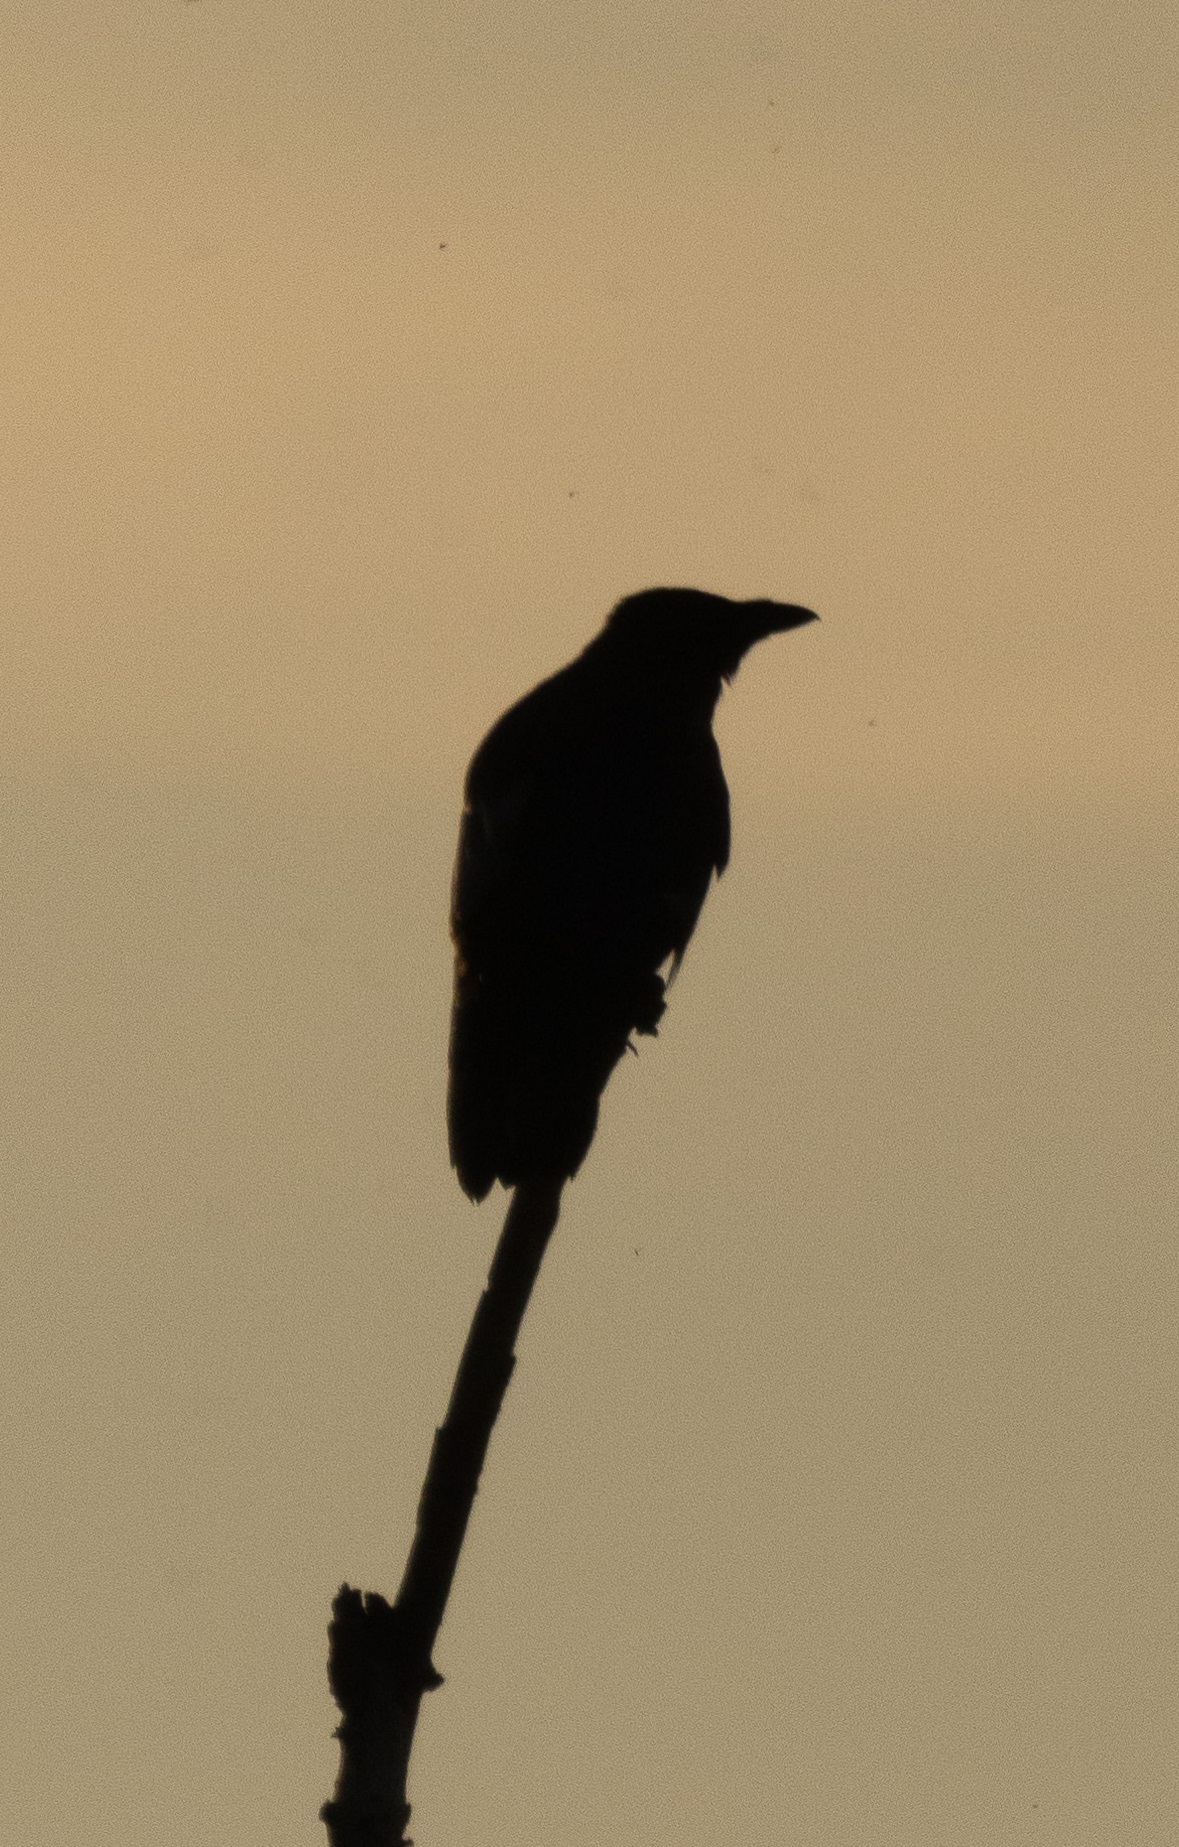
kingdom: Animalia
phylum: Chordata
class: Aves
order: Passeriformes
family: Corvidae
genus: Corvus
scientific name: Corvus corone
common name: Carrion crow
